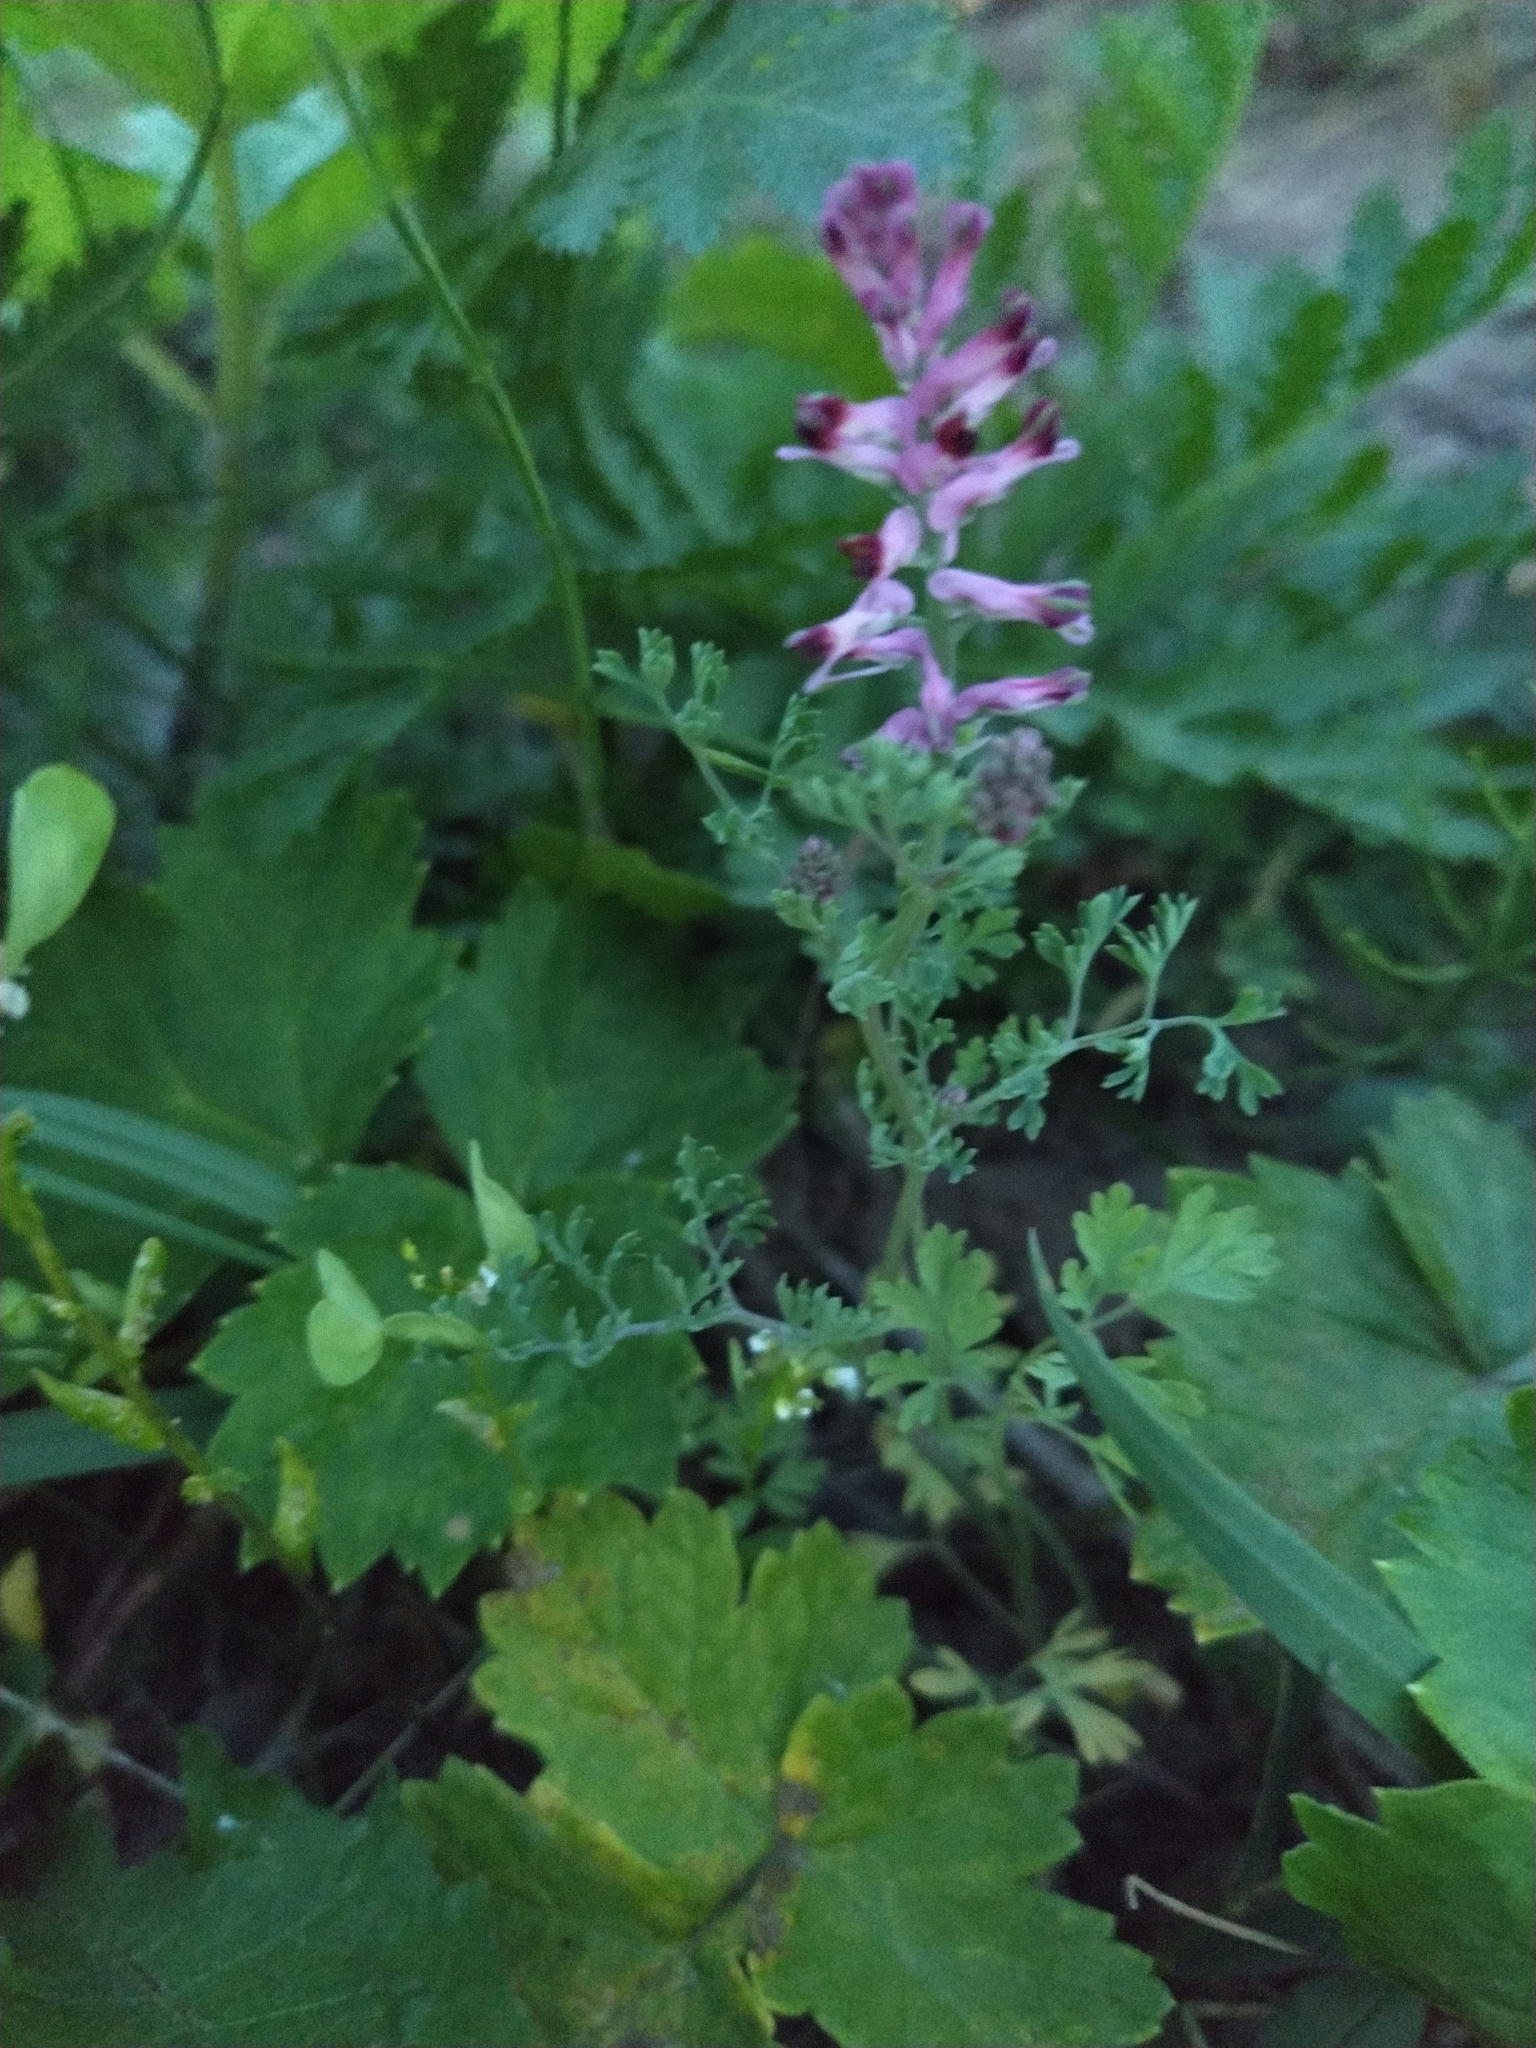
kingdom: Plantae
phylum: Tracheophyta
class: Magnoliopsida
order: Ranunculales
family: Papaveraceae
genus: Fumaria
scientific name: Fumaria officinalis
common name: Common fumitory
